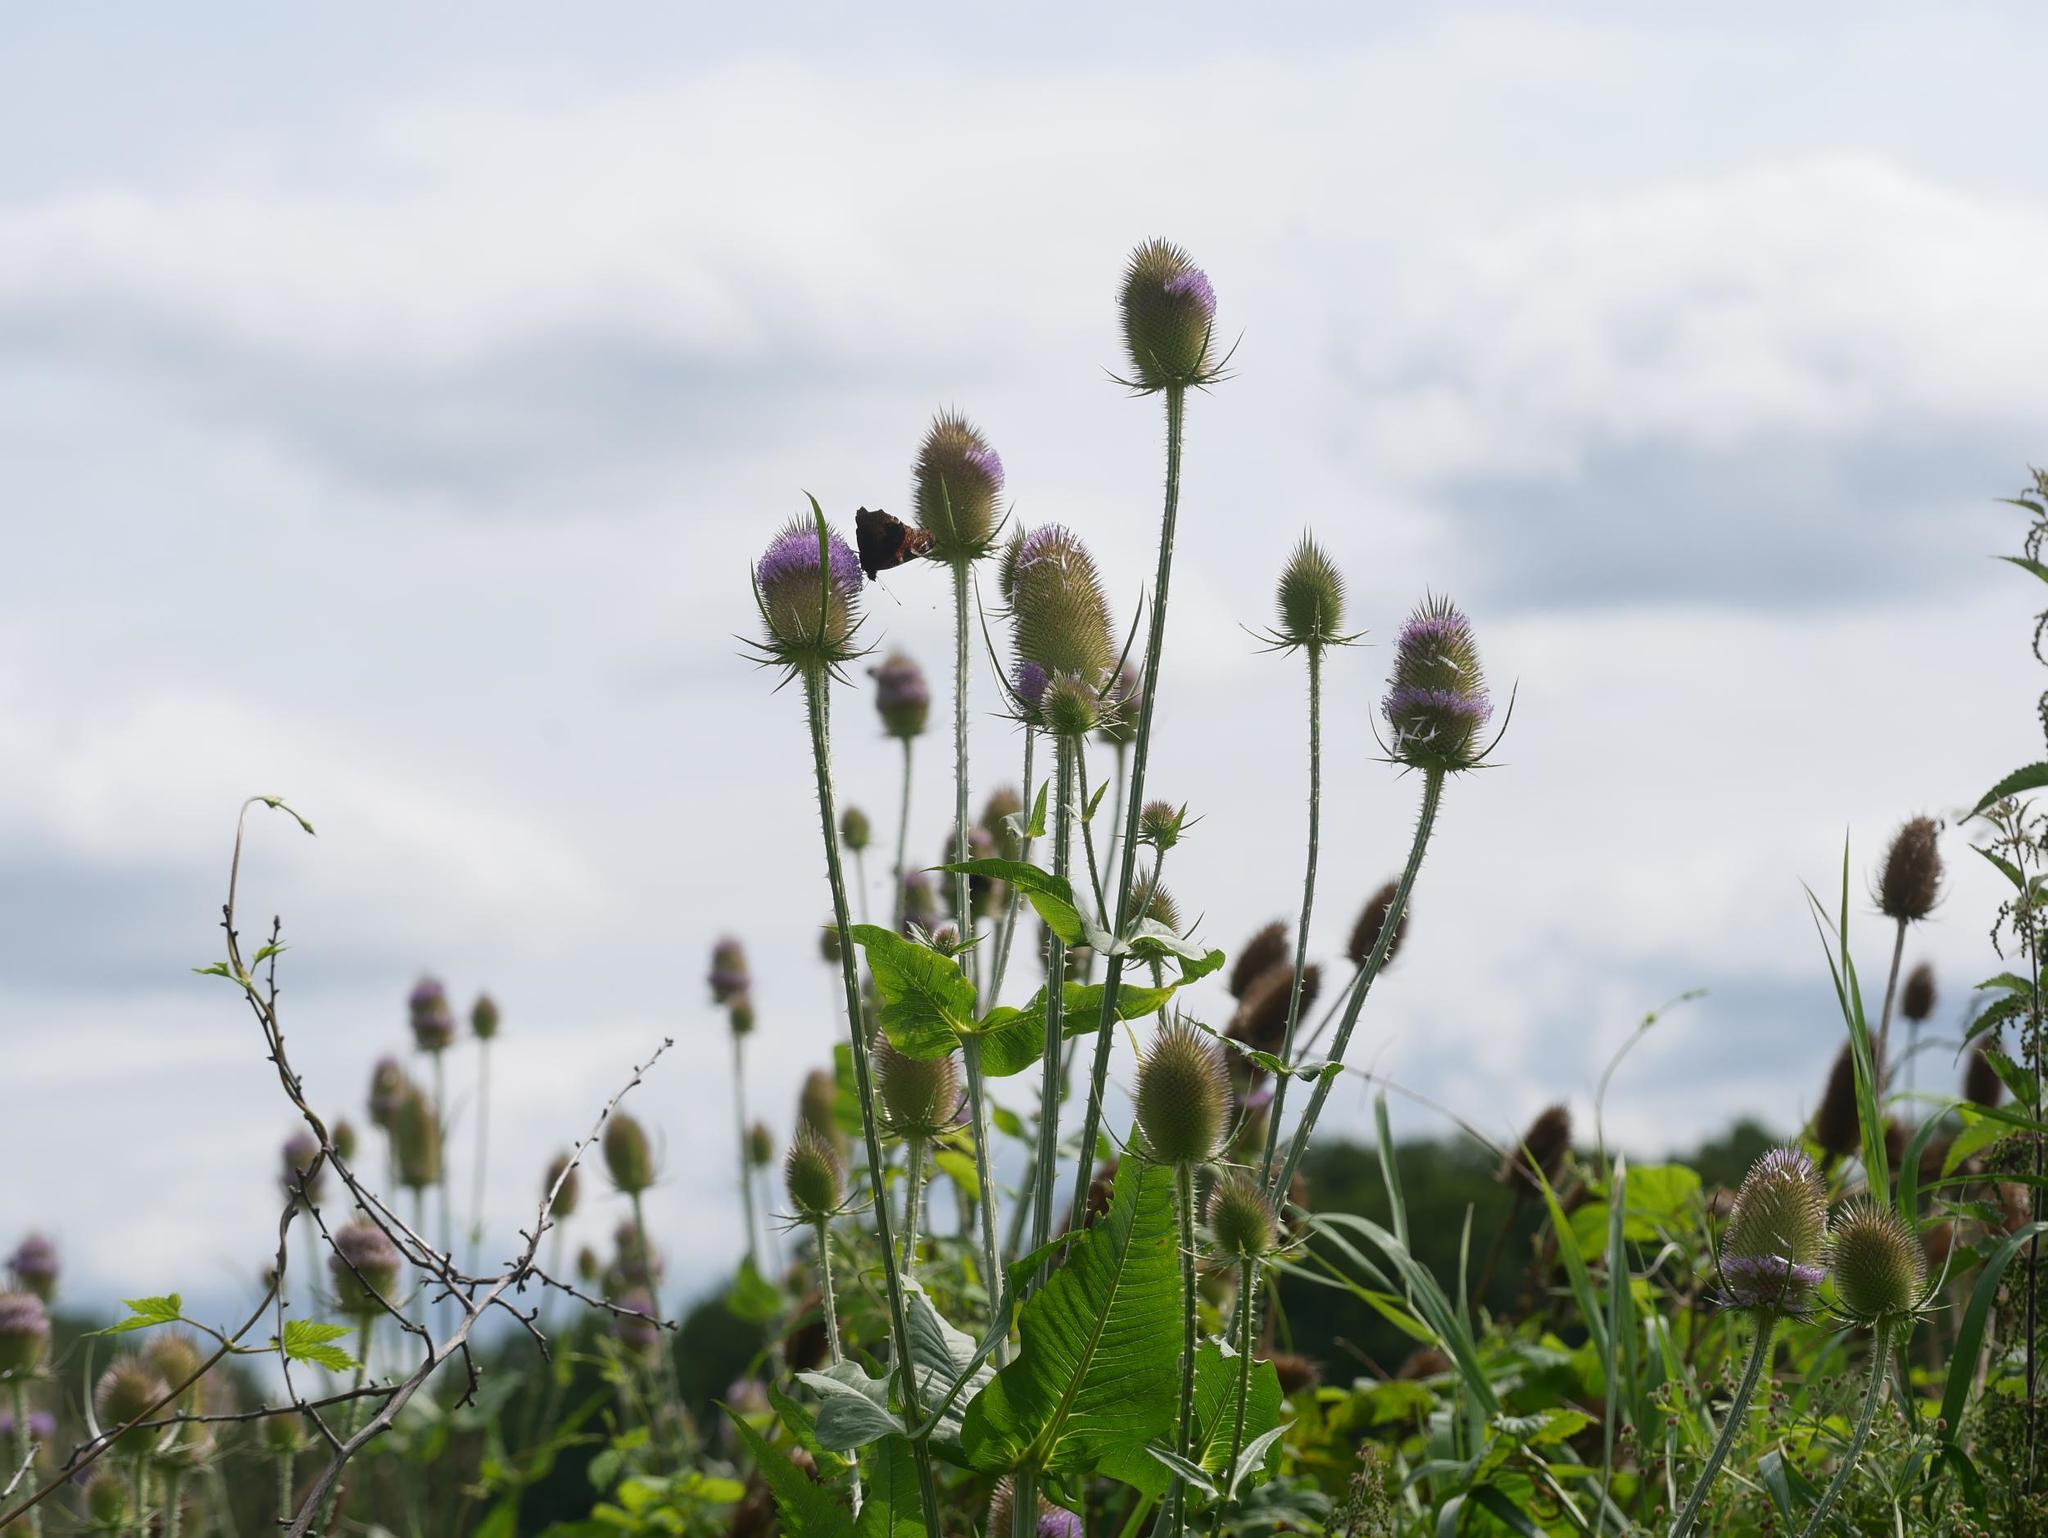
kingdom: Plantae
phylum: Tracheophyta
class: Magnoliopsida
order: Dipsacales
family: Caprifoliaceae
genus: Dipsacus
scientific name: Dipsacus fullonum
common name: Teasel
